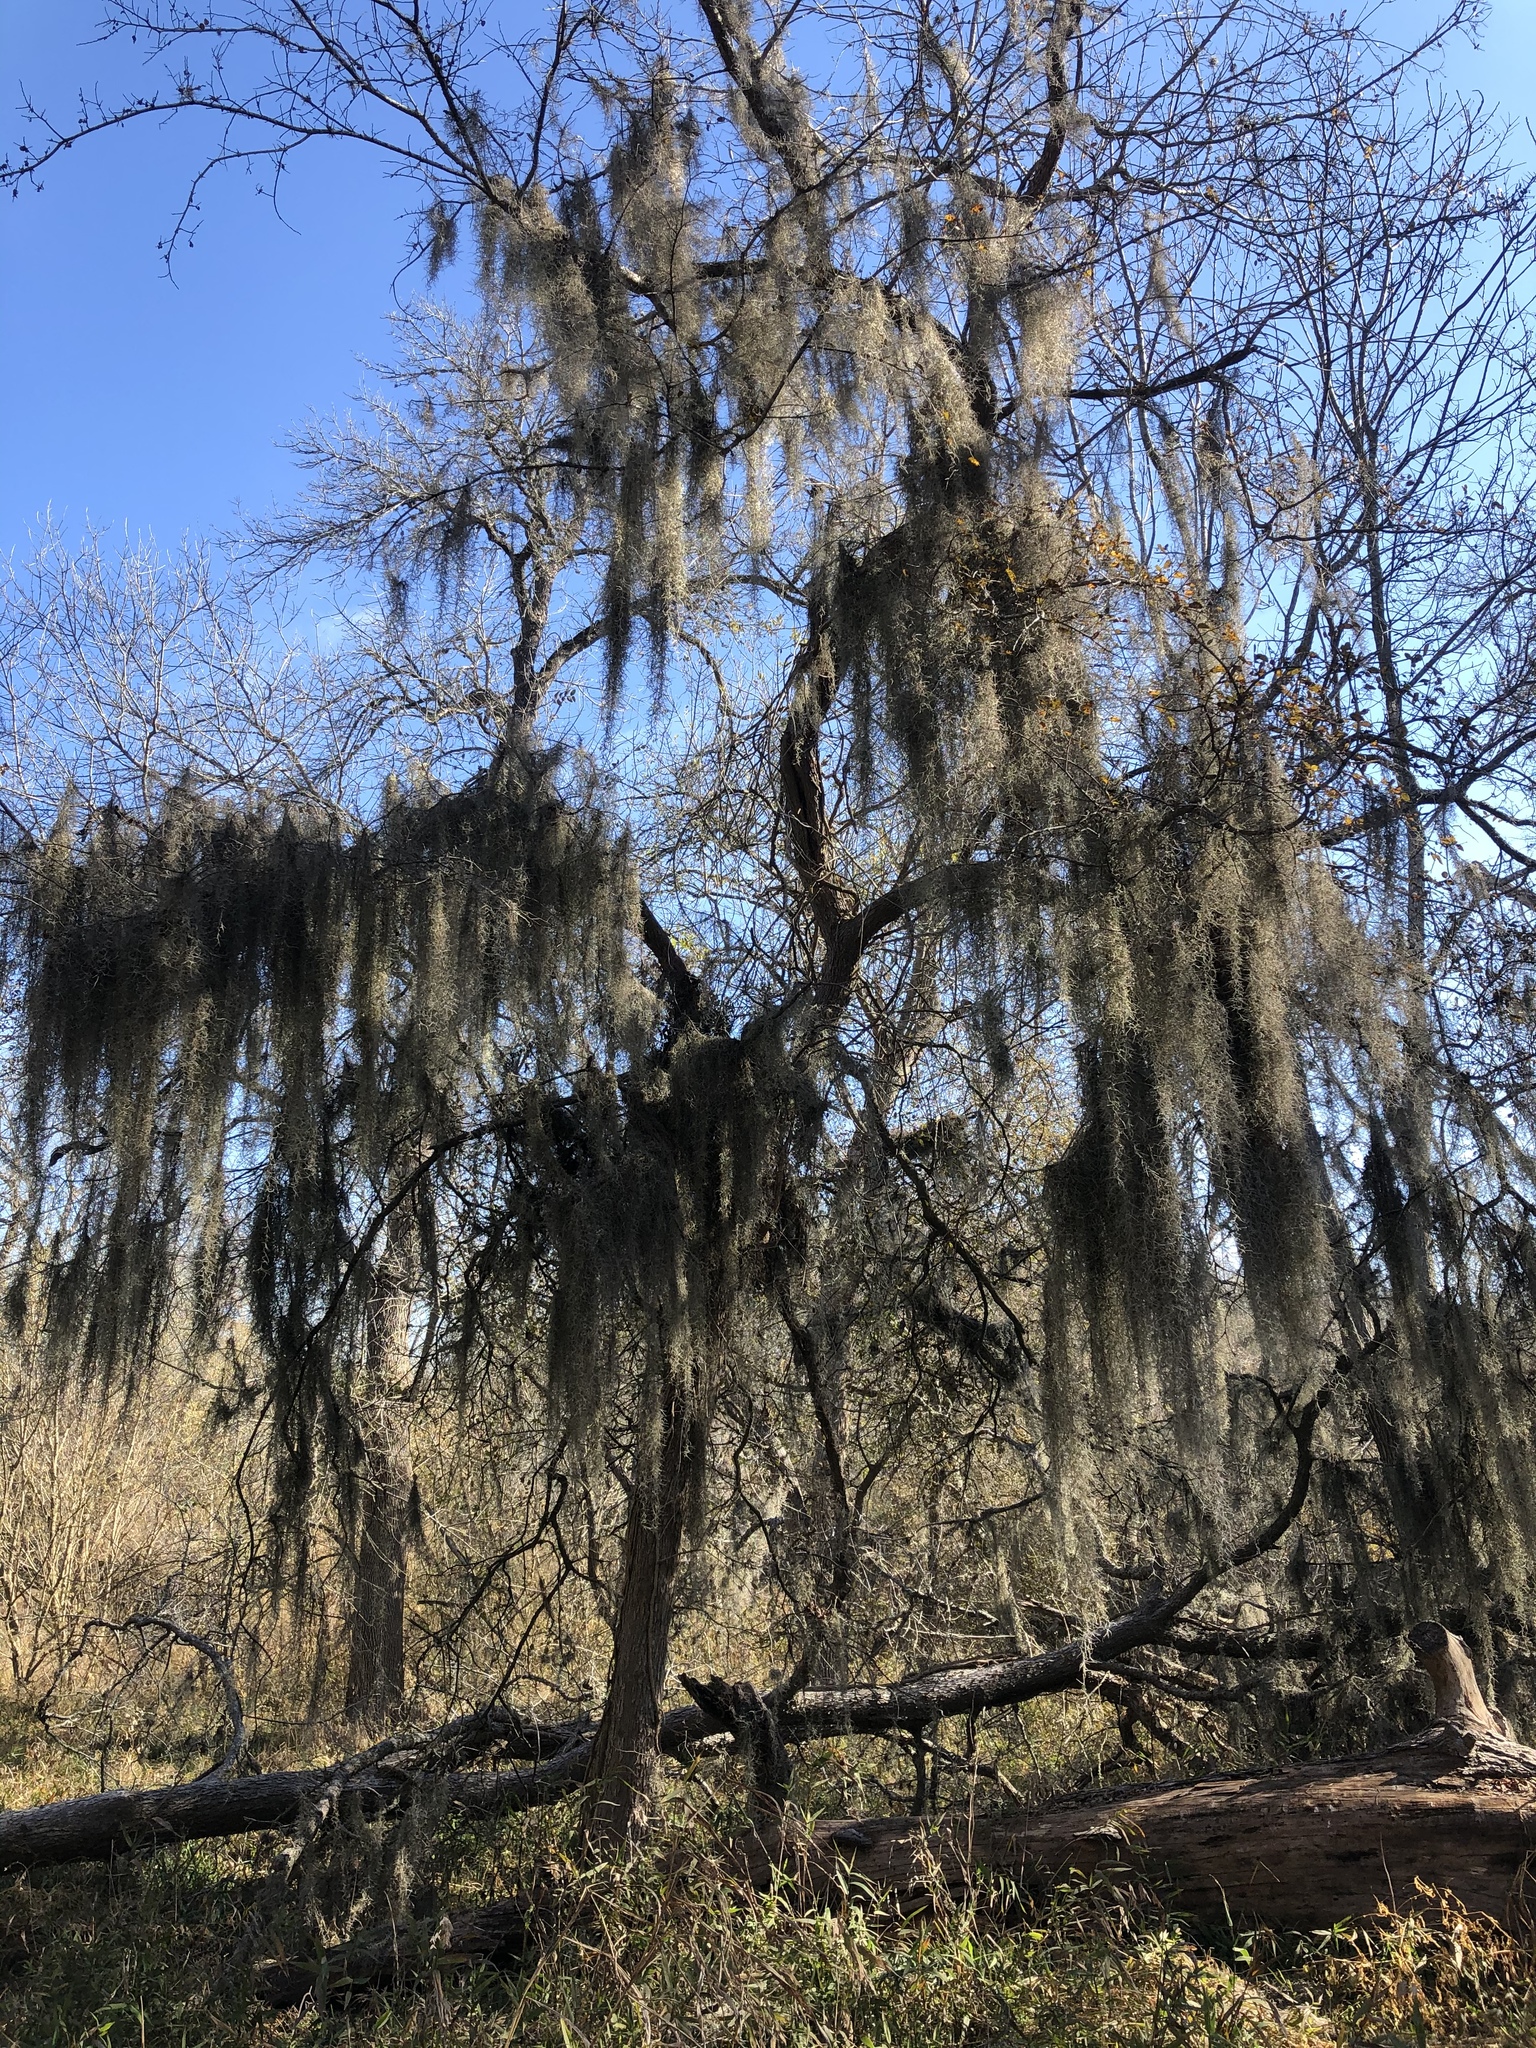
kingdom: Plantae
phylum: Tracheophyta
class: Liliopsida
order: Poales
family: Bromeliaceae
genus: Tillandsia
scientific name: Tillandsia usneoides
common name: Spanish moss
